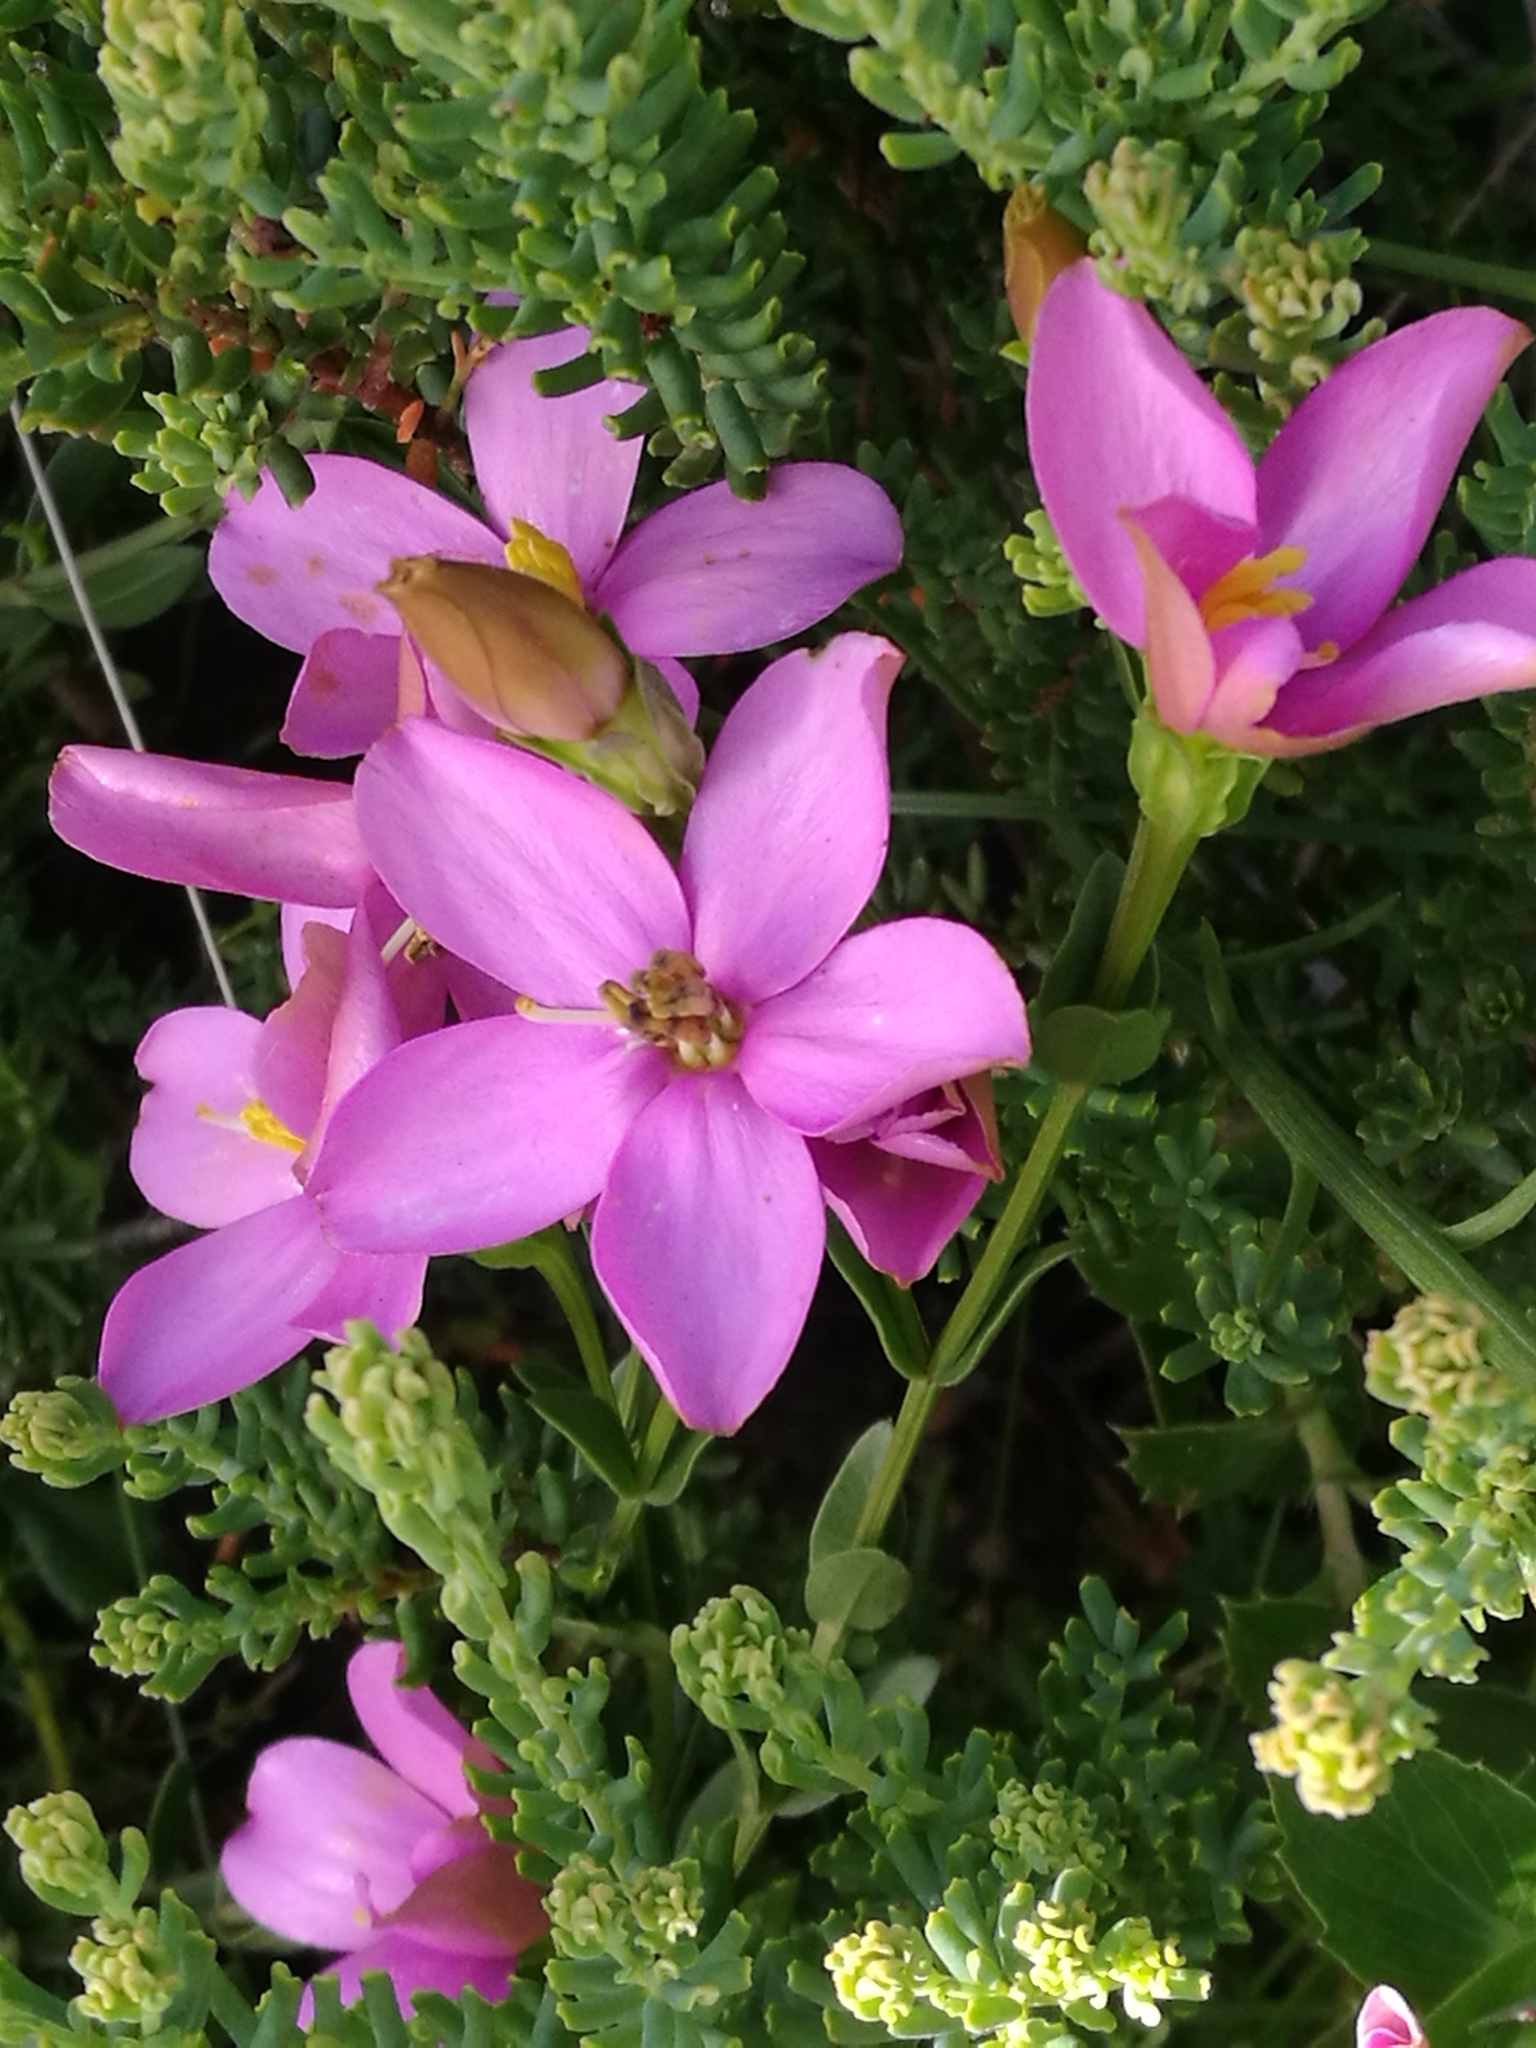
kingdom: Plantae
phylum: Tracheophyta
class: Magnoliopsida
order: Gentianales
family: Gentianaceae
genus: Chironia
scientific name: Chironia tetragona
